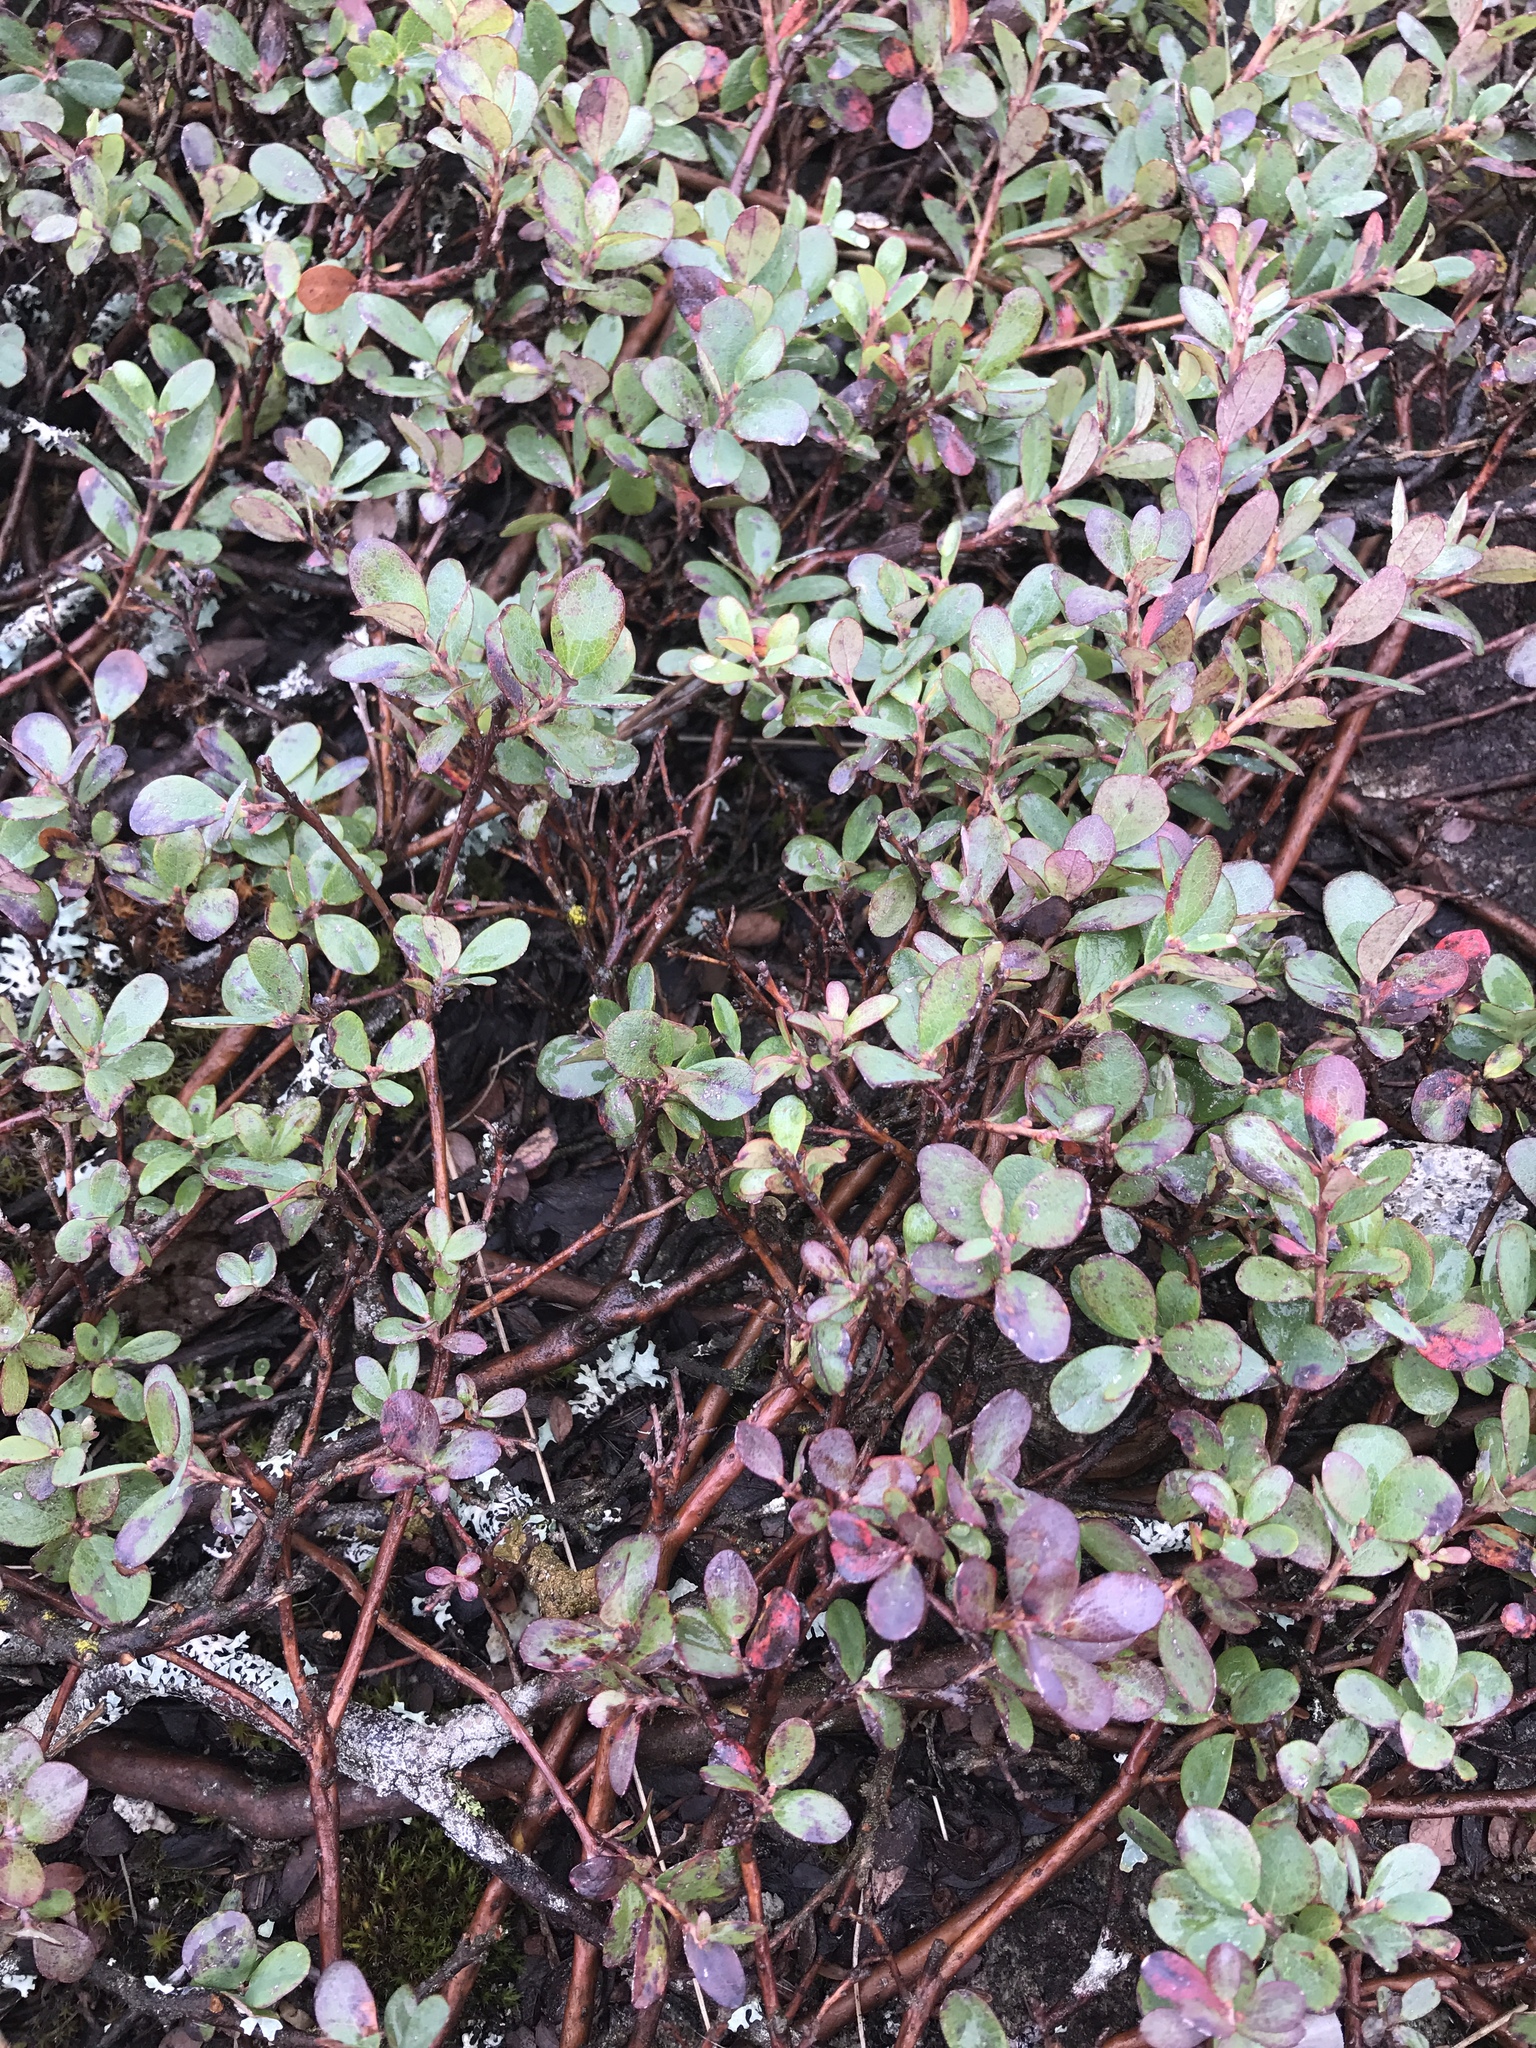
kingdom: Plantae
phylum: Tracheophyta
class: Magnoliopsida
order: Ericales
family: Ericaceae
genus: Vaccinium
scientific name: Vaccinium uliginosum
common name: Bog bilberry
